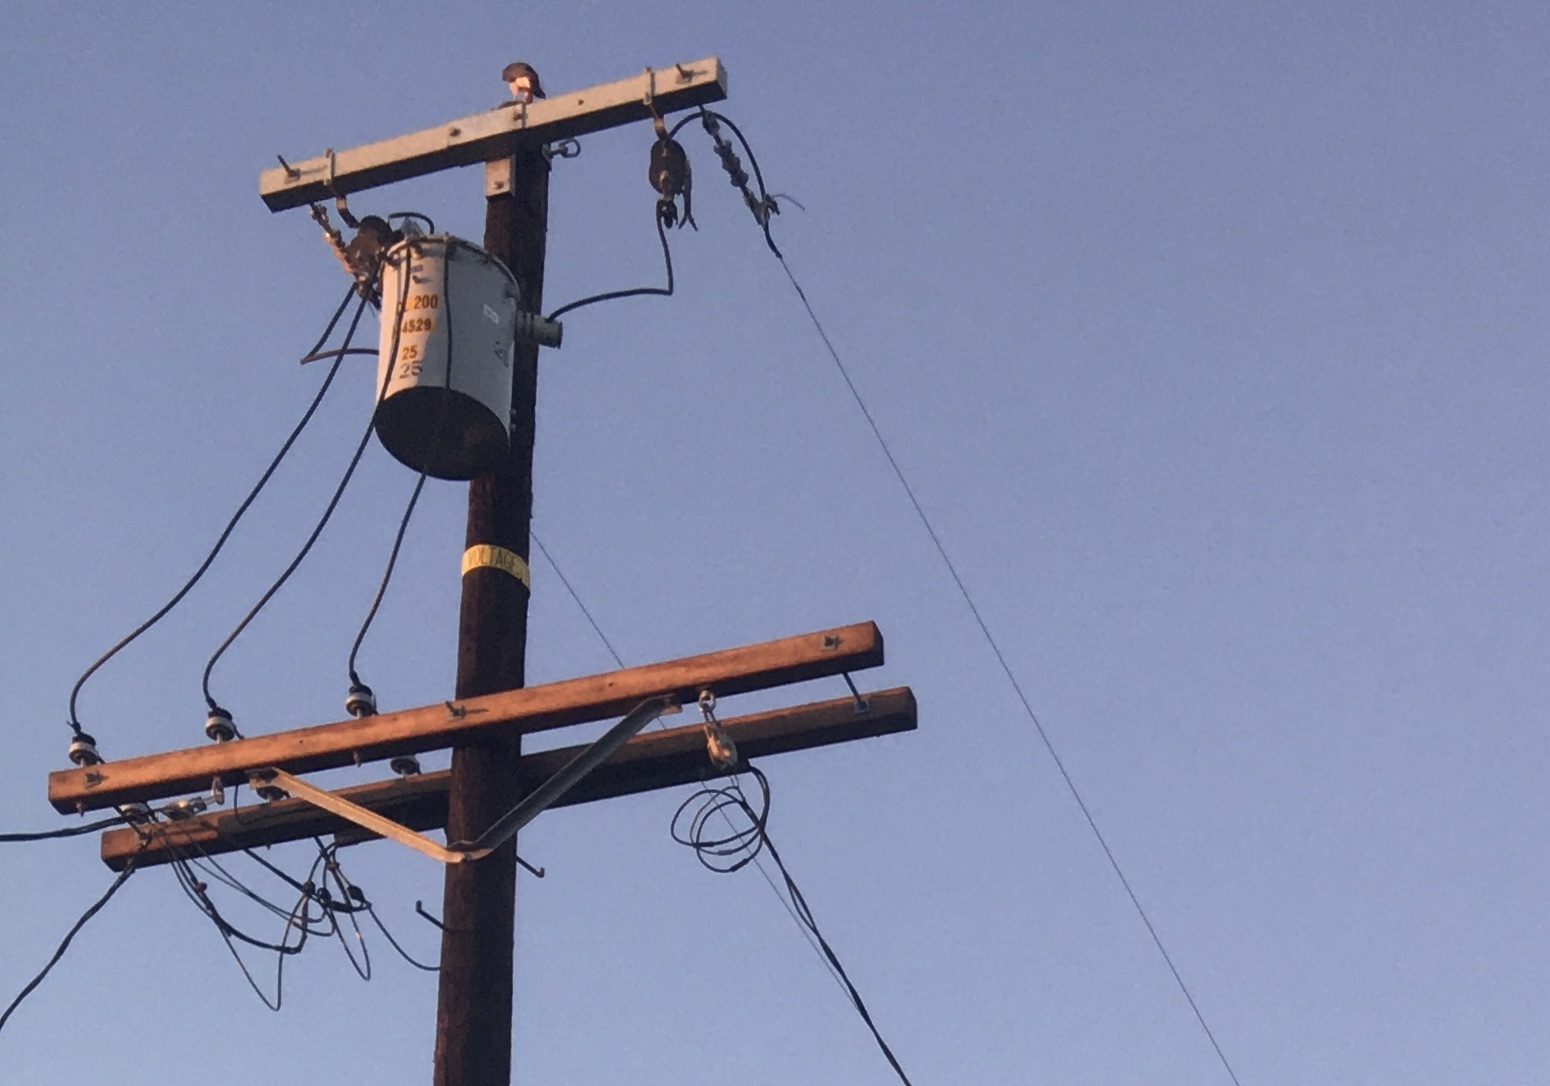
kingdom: Animalia
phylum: Chordata
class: Aves
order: Accipitriformes
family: Accipitridae
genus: Accipiter
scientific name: Accipiter cooperii
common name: Cooper's hawk
